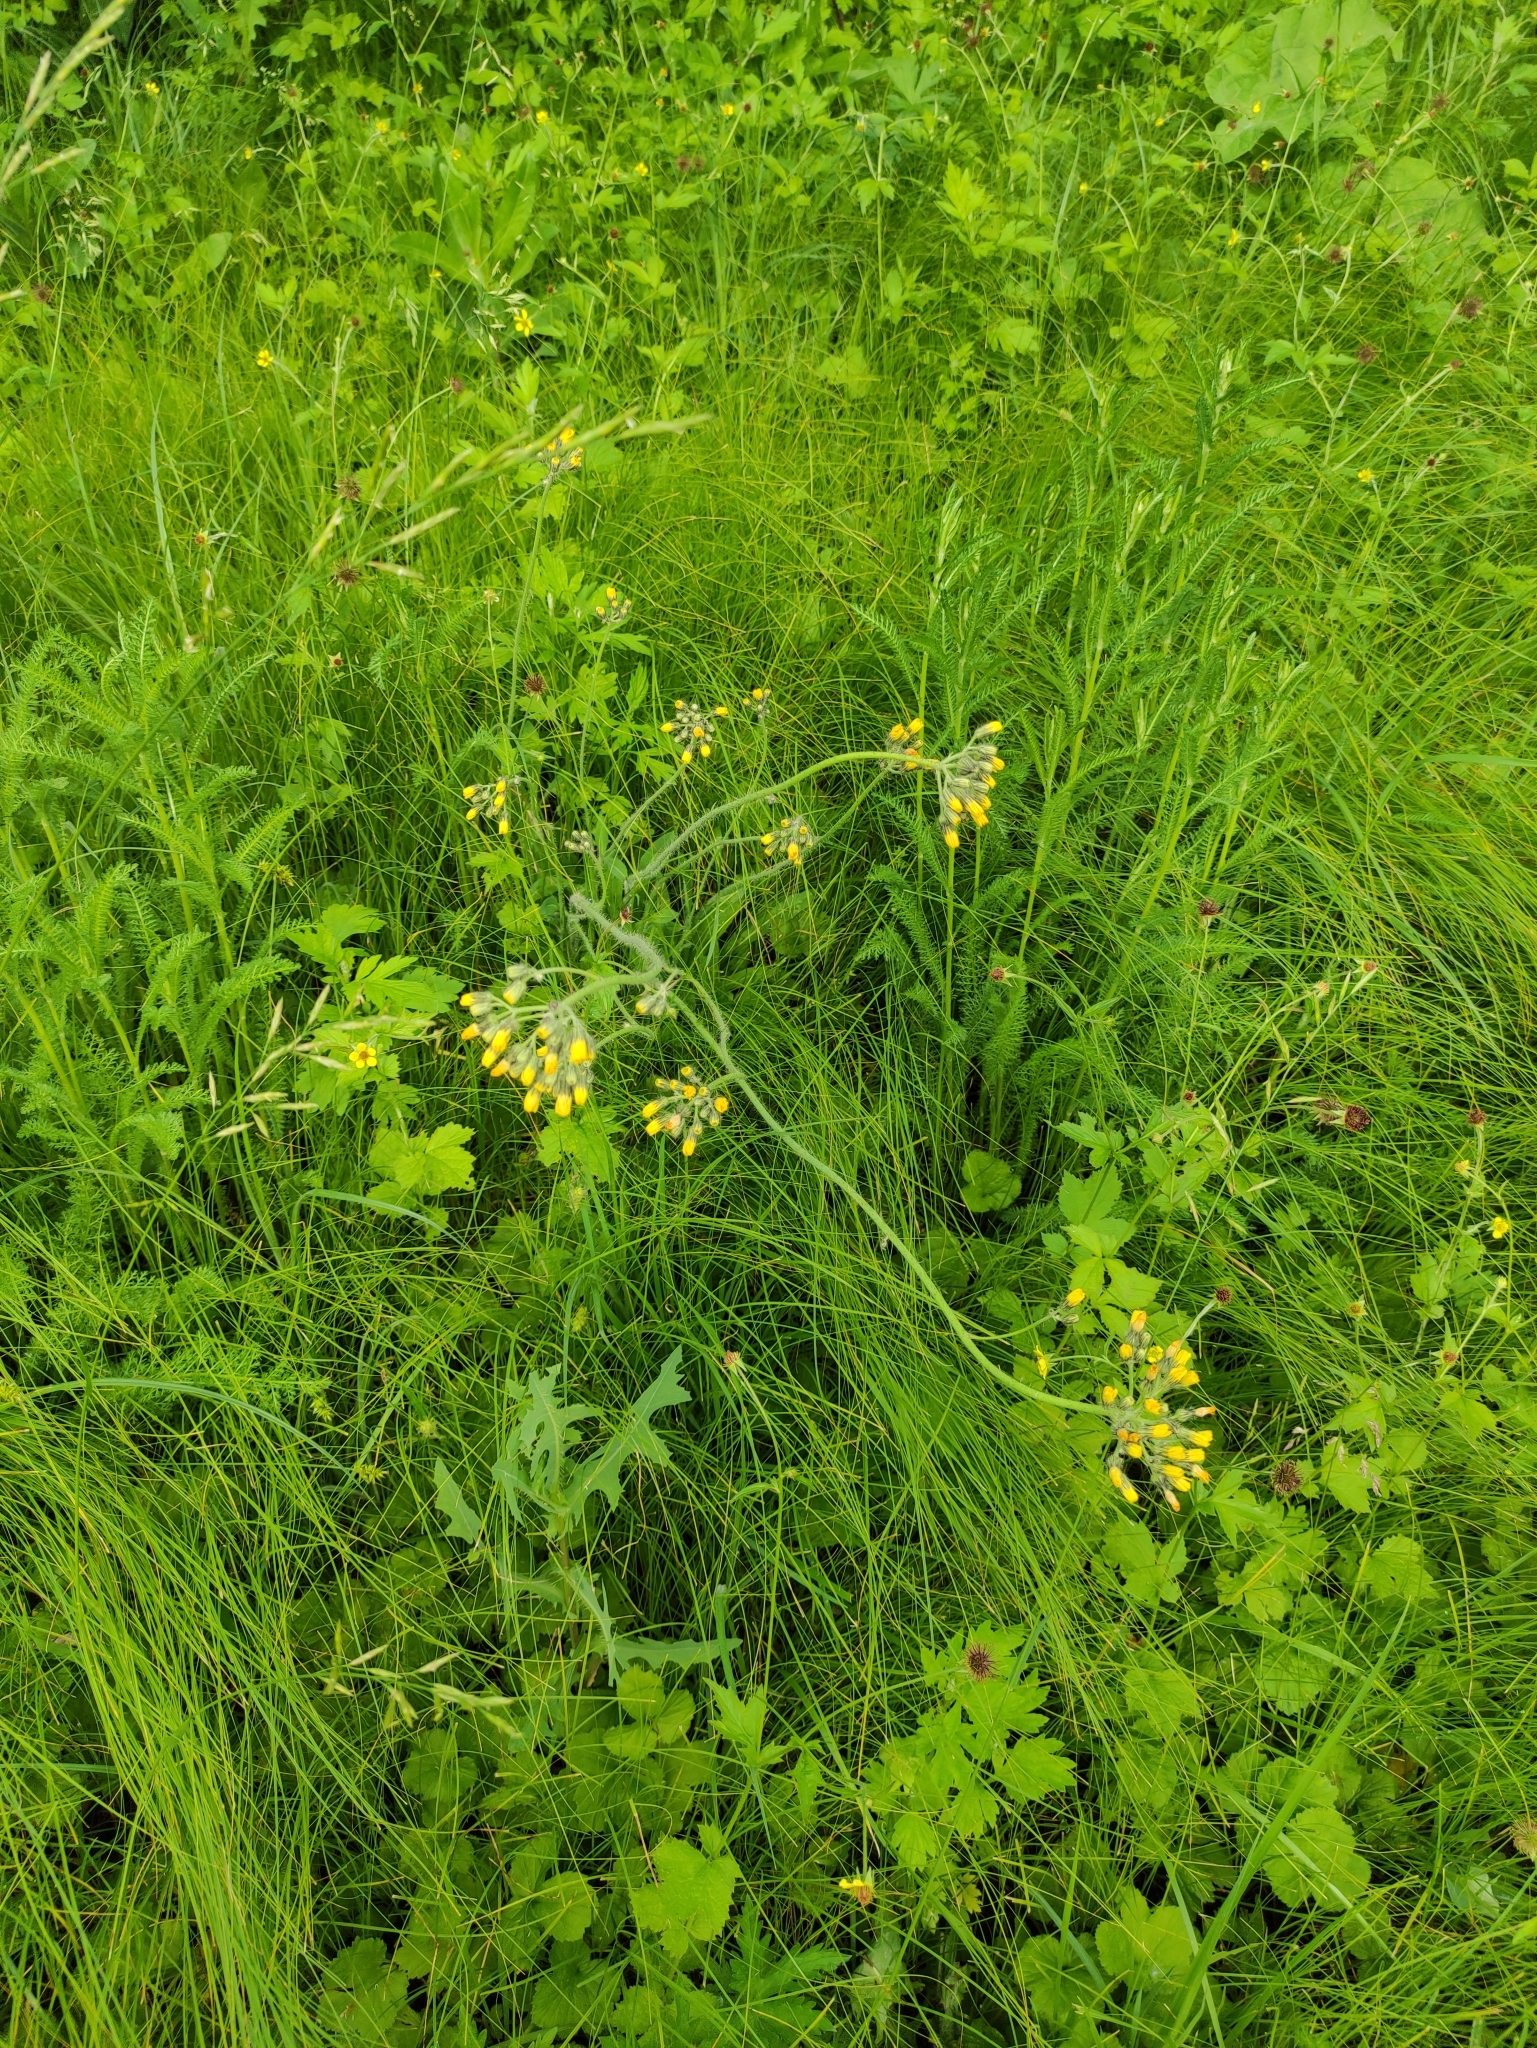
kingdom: Plantae
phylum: Tracheophyta
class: Magnoliopsida
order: Asterales
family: Asteraceae
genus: Pilosella
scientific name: Pilosella
